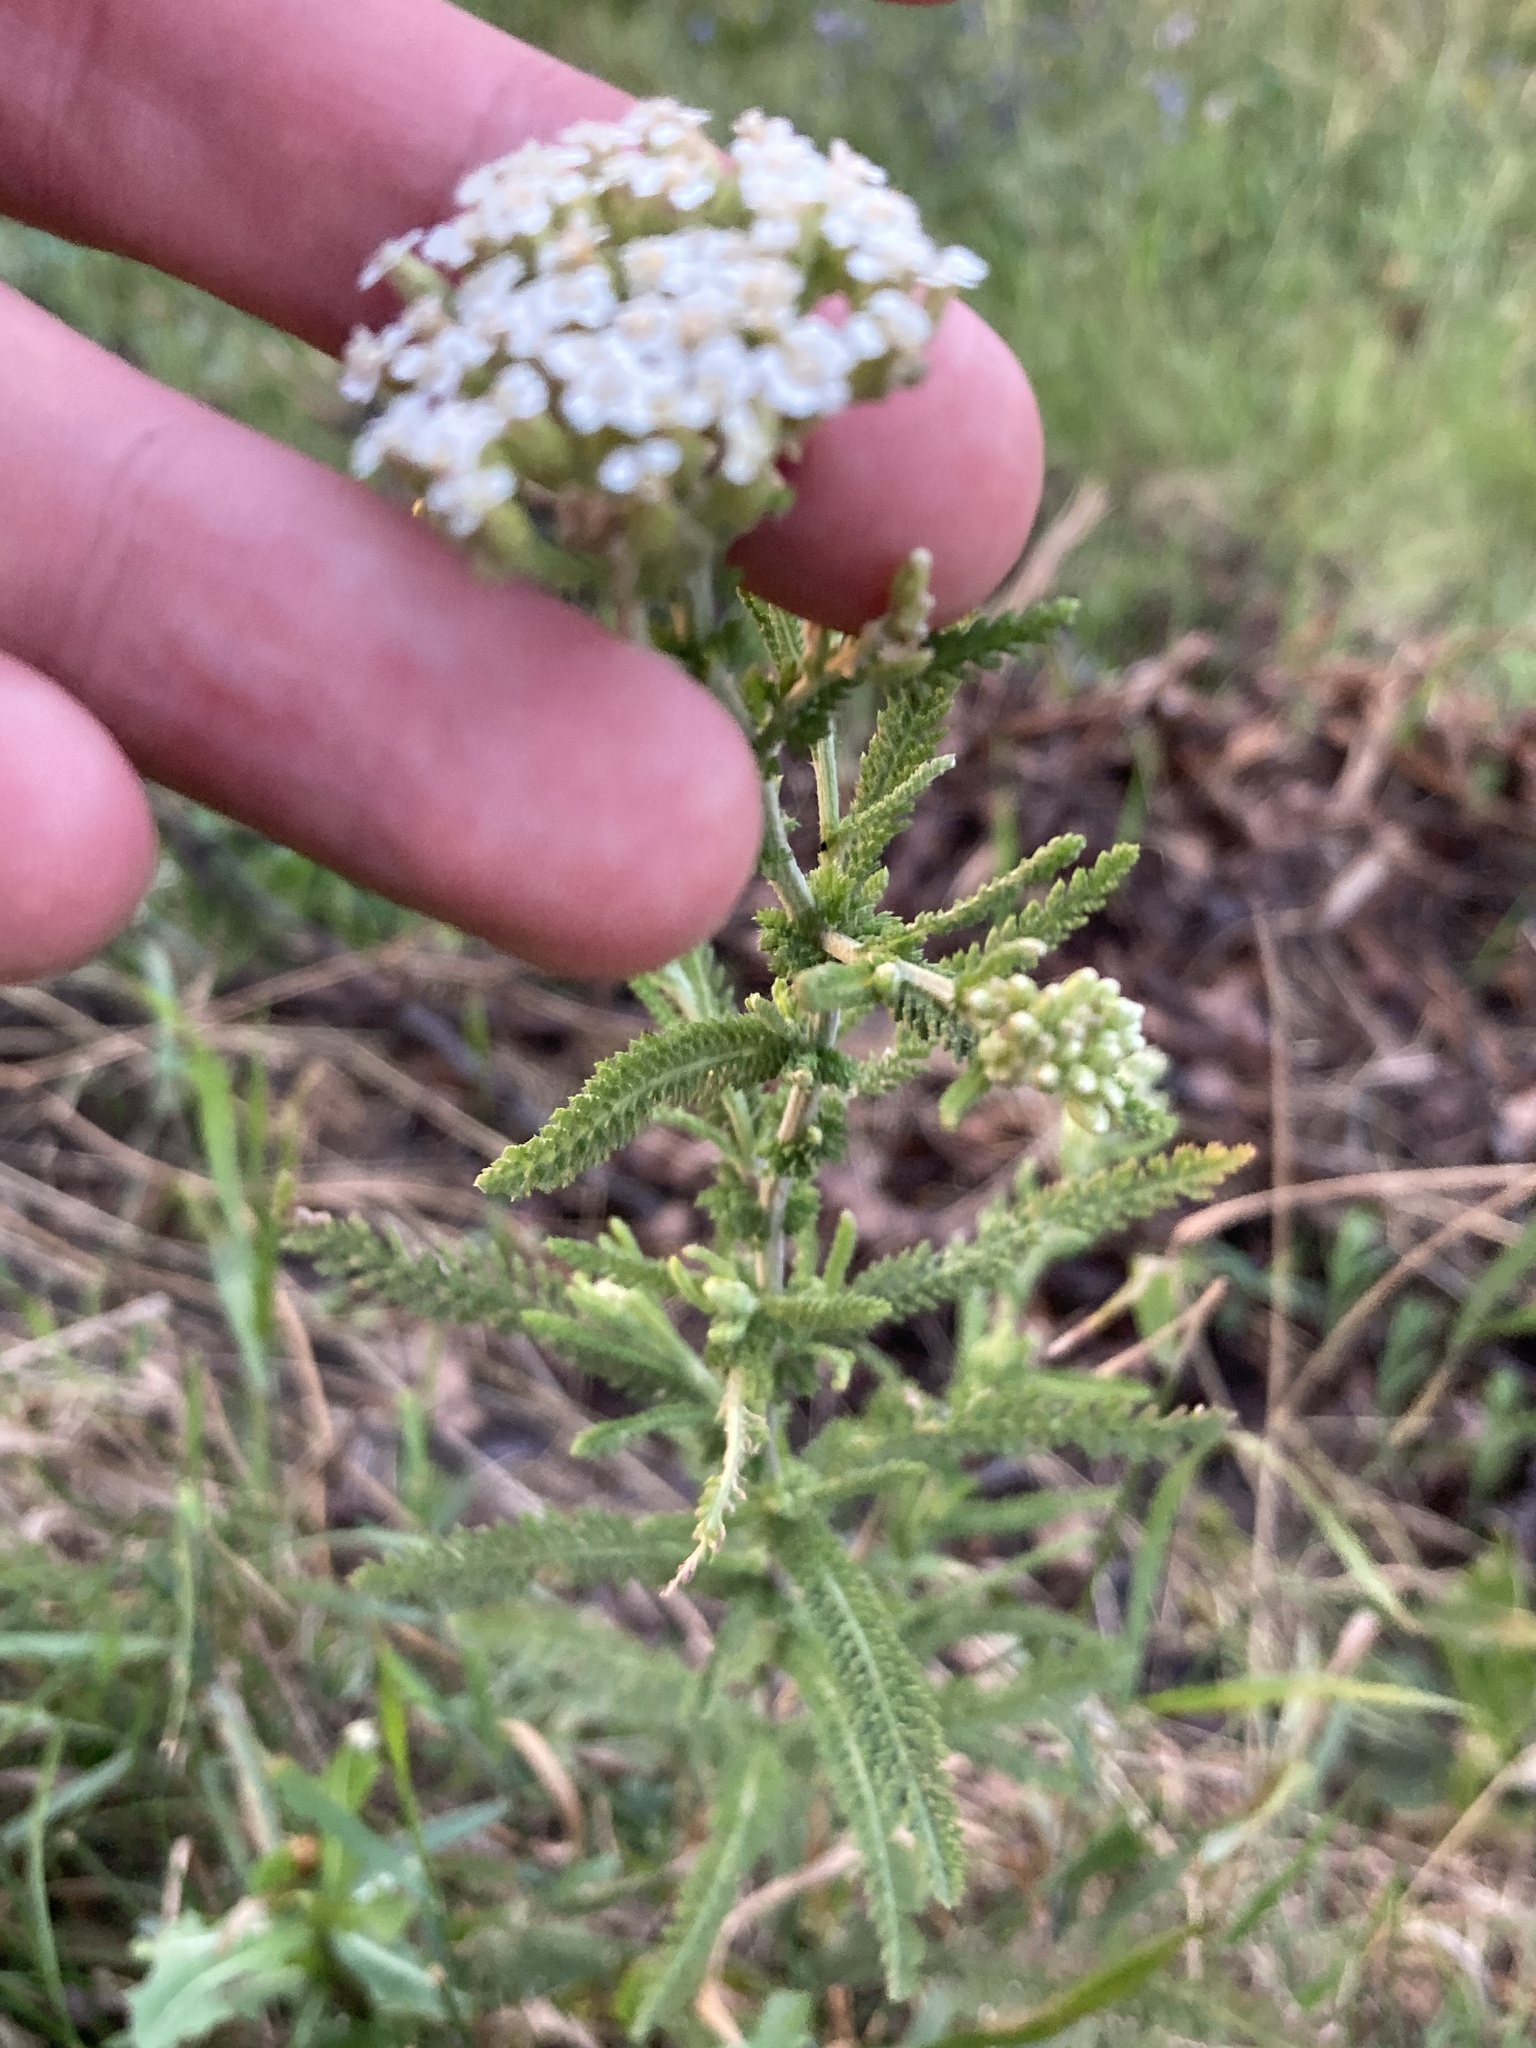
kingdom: Plantae
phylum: Tracheophyta
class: Magnoliopsida
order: Asterales
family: Asteraceae
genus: Achillea
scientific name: Achillea setacea
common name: Bristly yarrow
